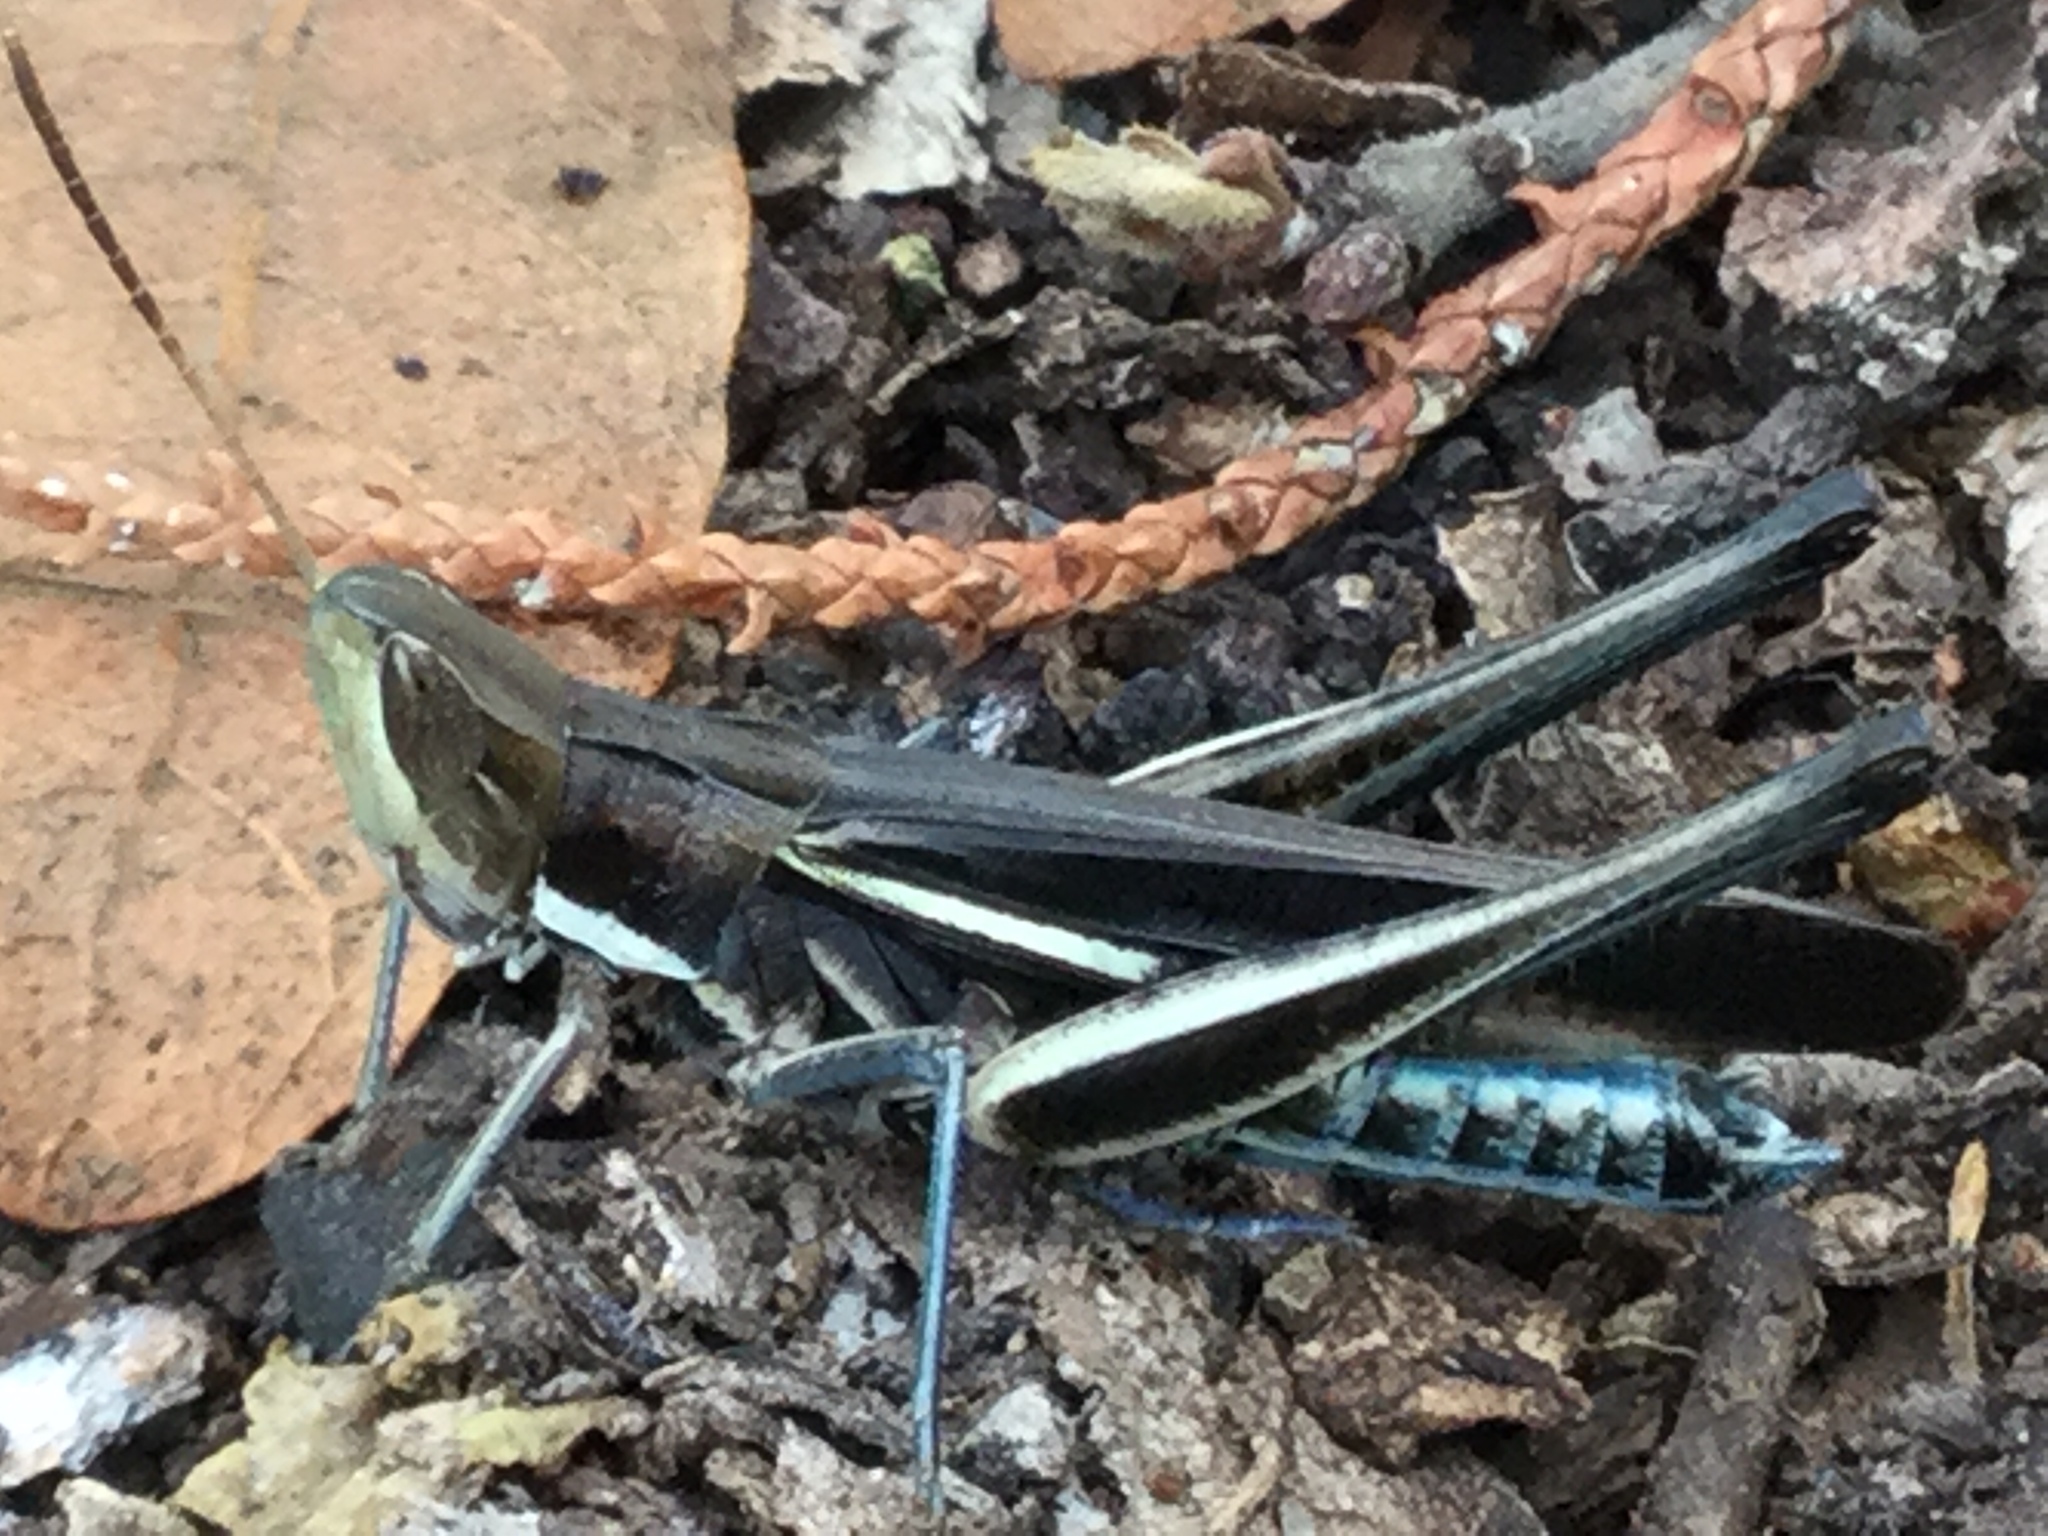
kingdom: Animalia
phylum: Arthropoda
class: Insecta
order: Orthoptera
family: Acrididae
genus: Syrbula
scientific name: Syrbula montezuma
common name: Montezuma's grasshopper
